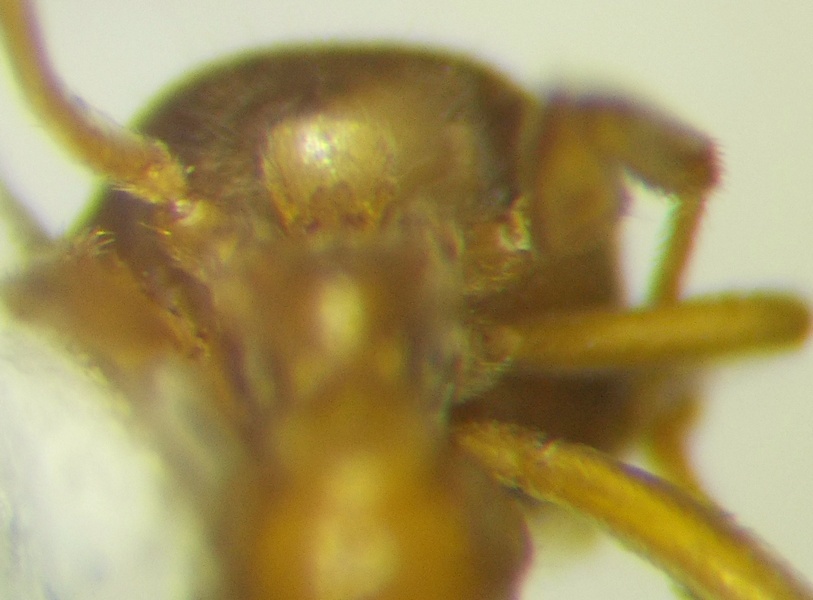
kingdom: Animalia
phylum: Arthropoda
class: Insecta
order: Hymenoptera
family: Formicidae
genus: Lasius
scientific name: Lasius flavus
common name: Blond field ant
